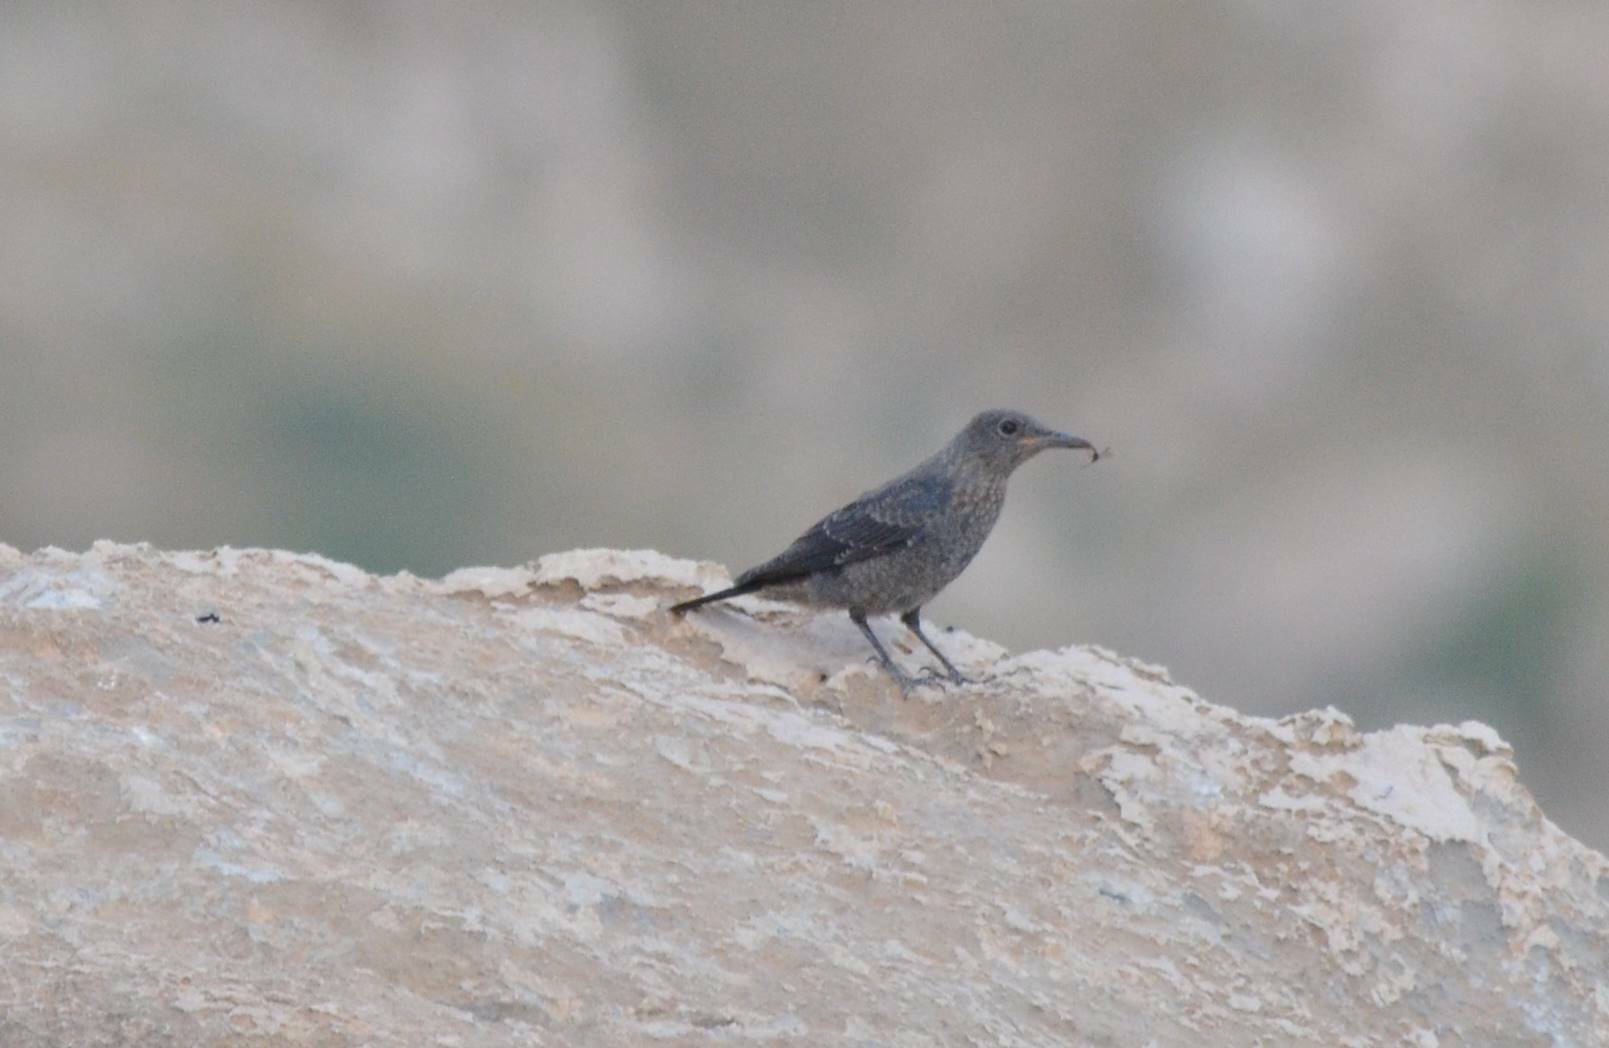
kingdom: Animalia
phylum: Chordata
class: Aves
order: Passeriformes
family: Muscicapidae
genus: Monticola
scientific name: Monticola solitarius
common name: Blue rock thrush
